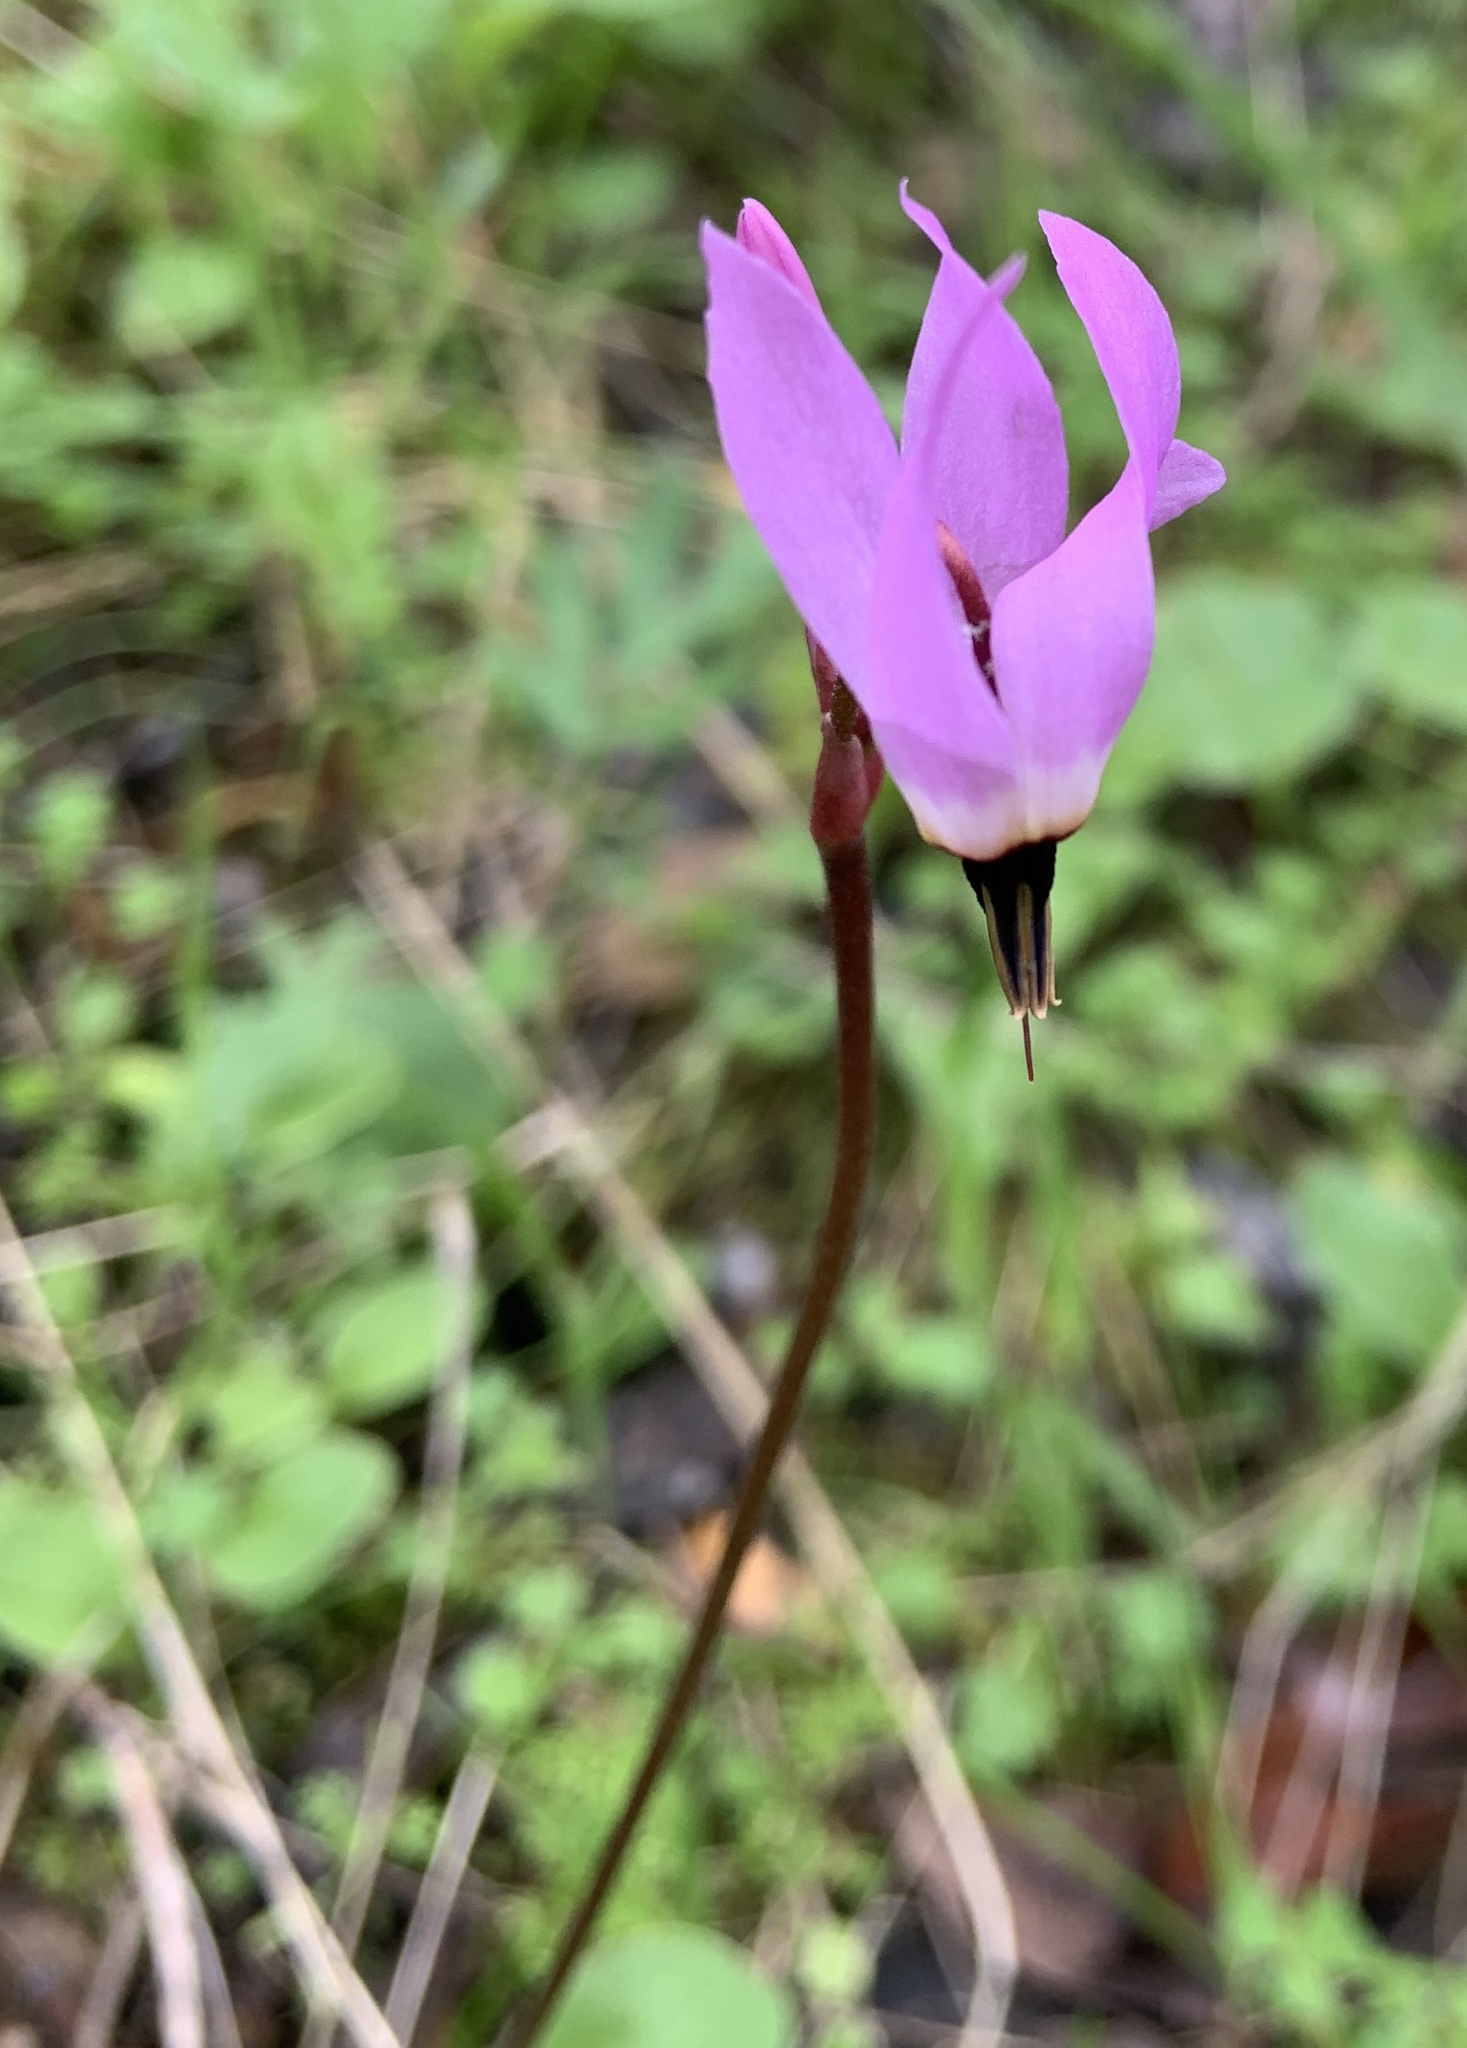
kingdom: Plantae
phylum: Tracheophyta
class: Magnoliopsida
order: Ericales
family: Primulaceae
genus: Dodecatheon
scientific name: Dodecatheon hendersonii
